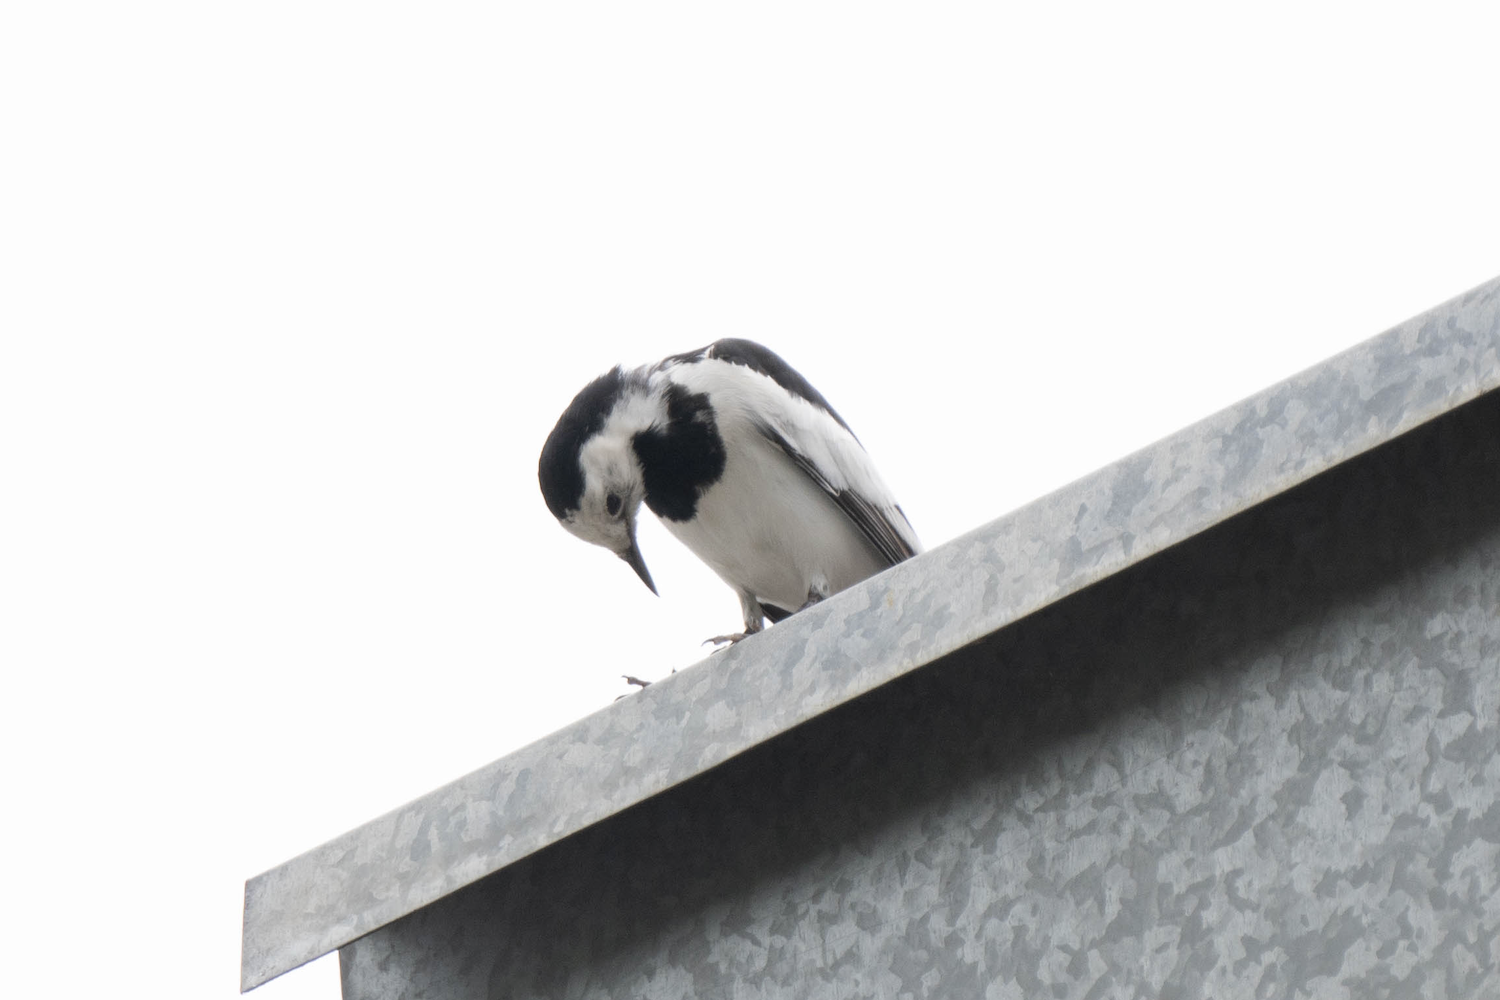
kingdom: Animalia
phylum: Chordata
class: Aves
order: Passeriformes
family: Motacillidae
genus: Motacilla
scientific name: Motacilla alba
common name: White wagtail
